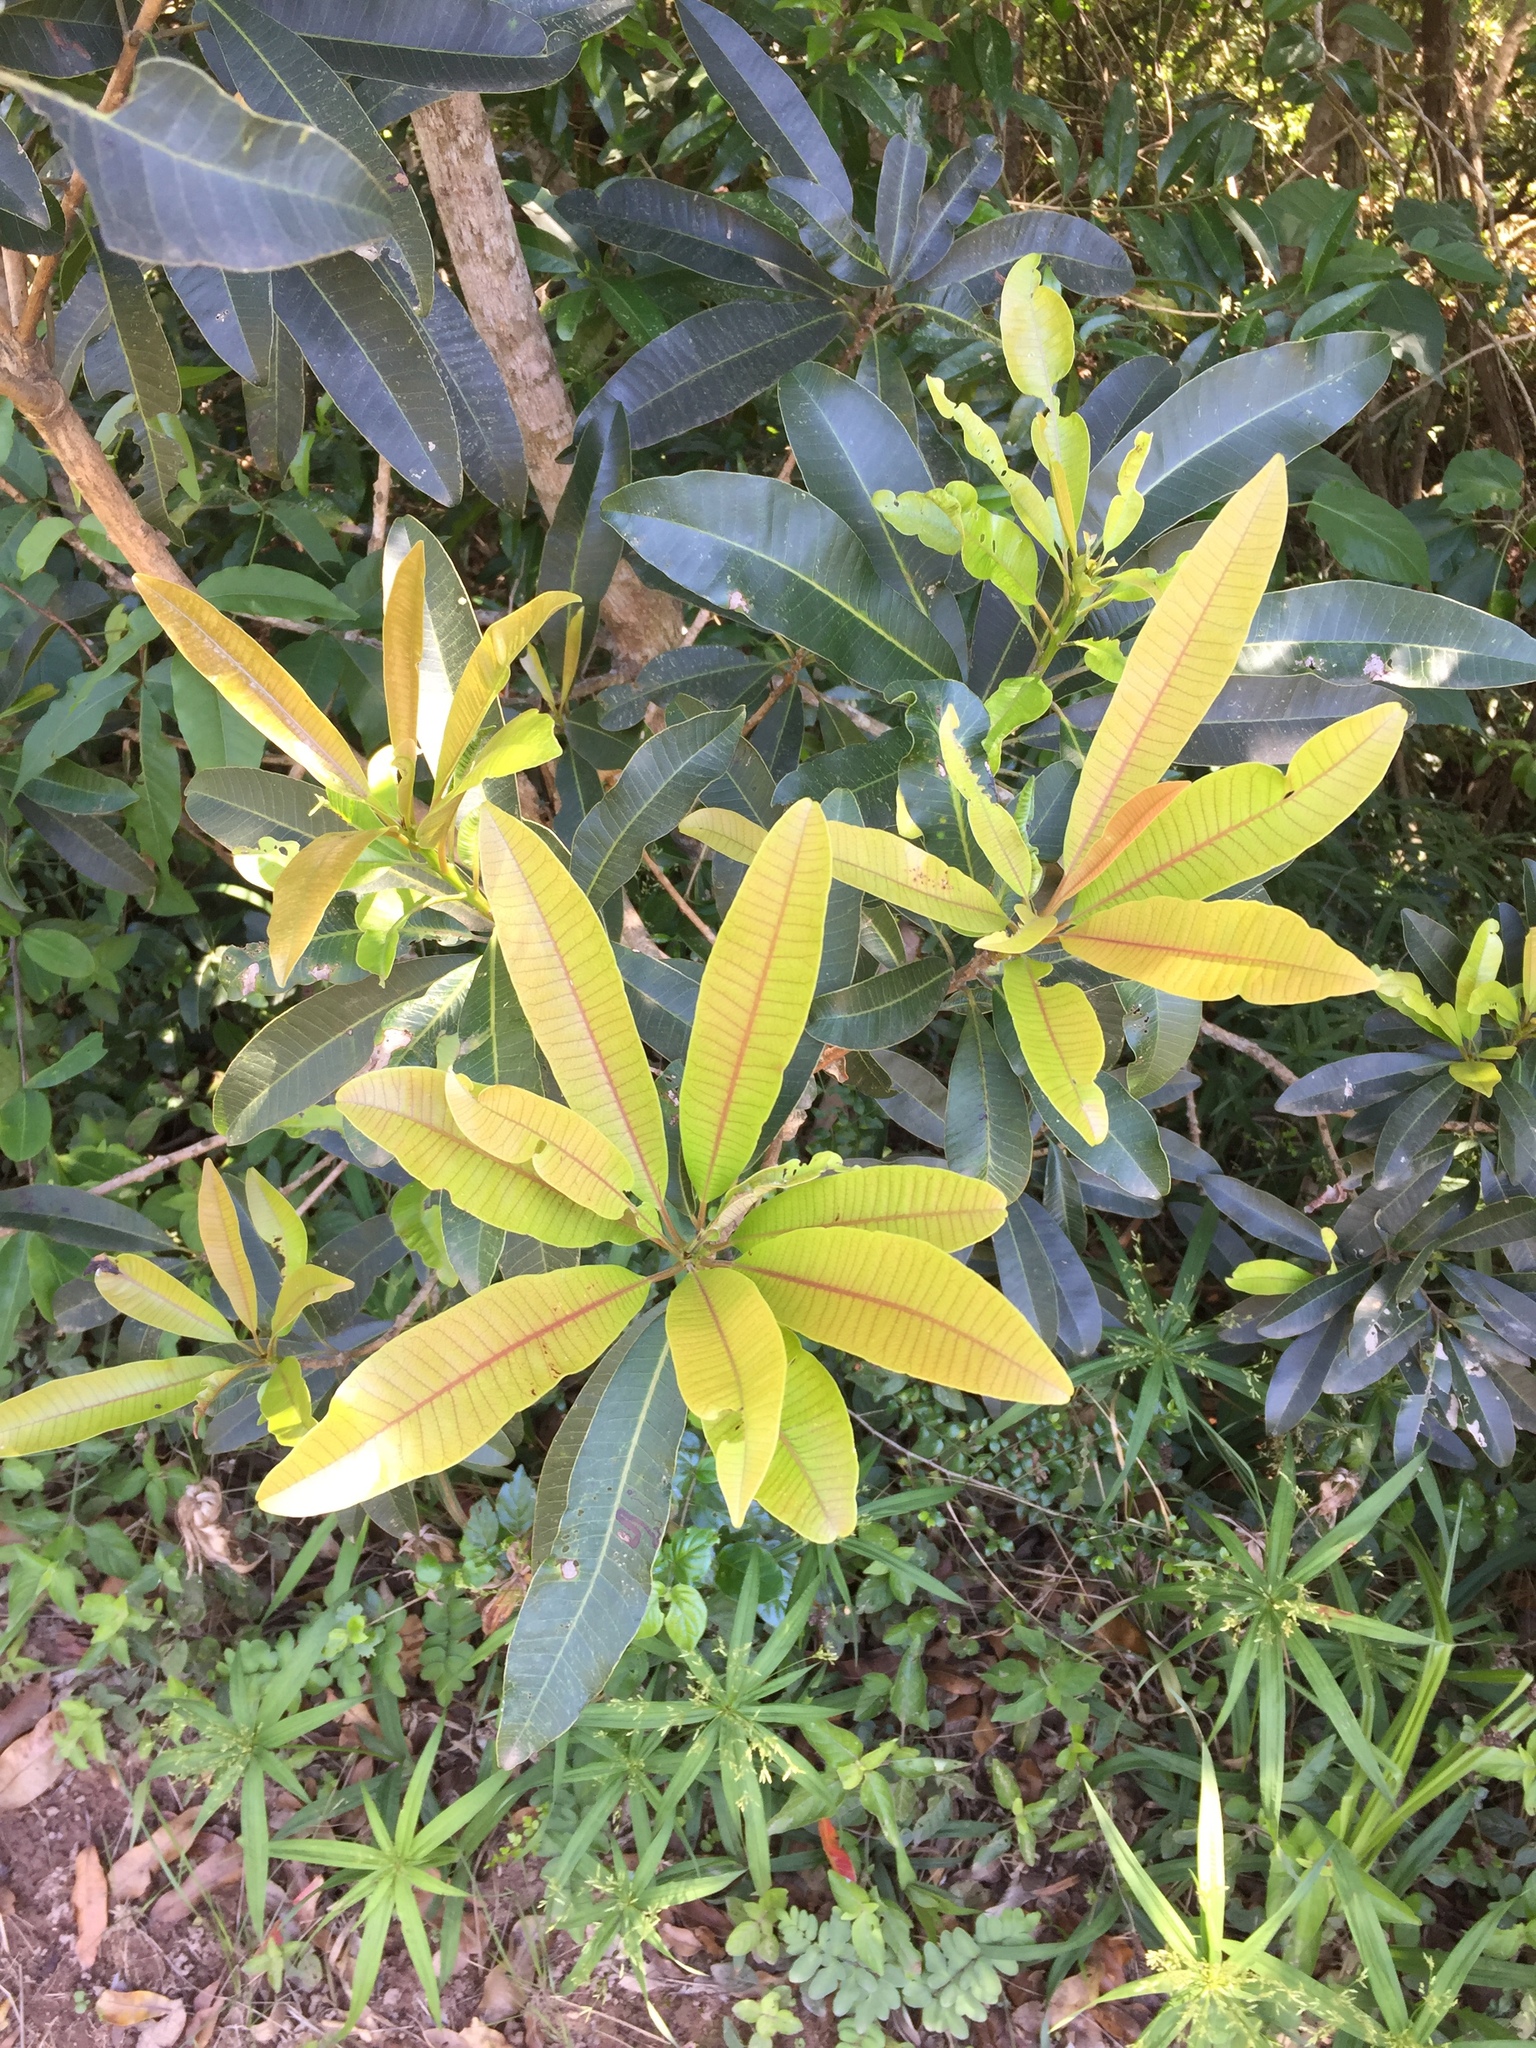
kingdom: Plantae
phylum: Tracheophyta
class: Magnoliopsida
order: Sapindales
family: Anacardiaceae
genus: Protorhus
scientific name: Protorhus longifolia
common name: Red-beech
